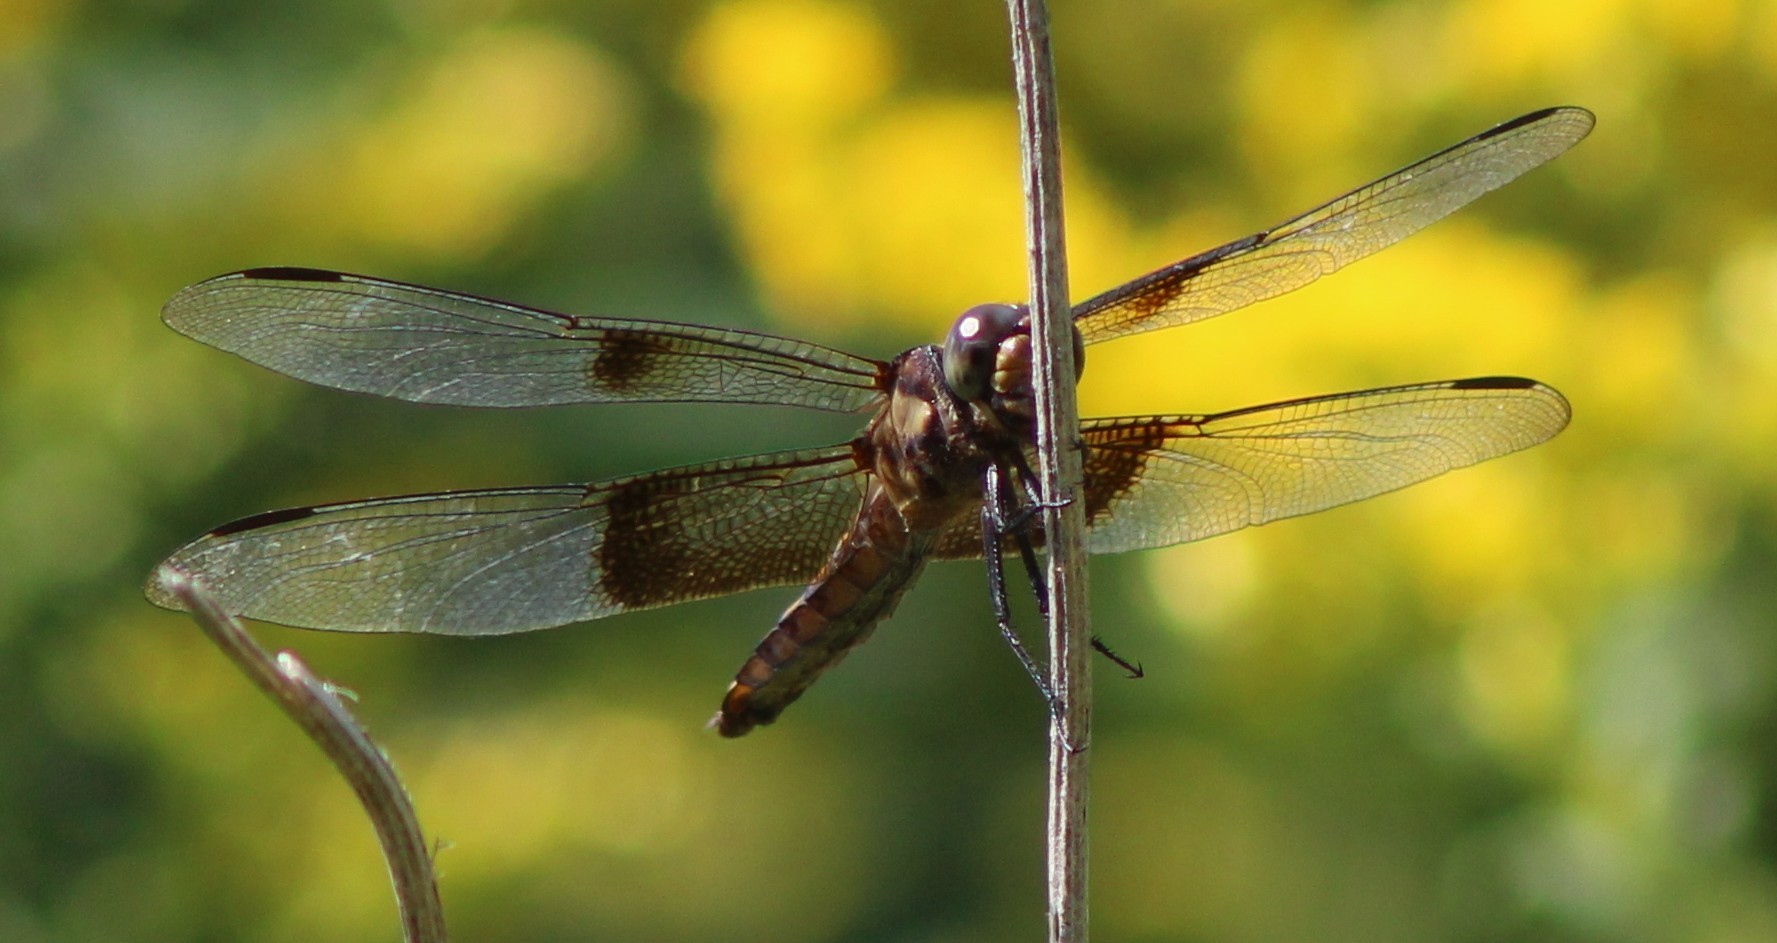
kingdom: Animalia
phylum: Arthropoda
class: Insecta
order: Odonata
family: Libellulidae
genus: Libellula
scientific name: Libellula luctuosa
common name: Widow skimmer
